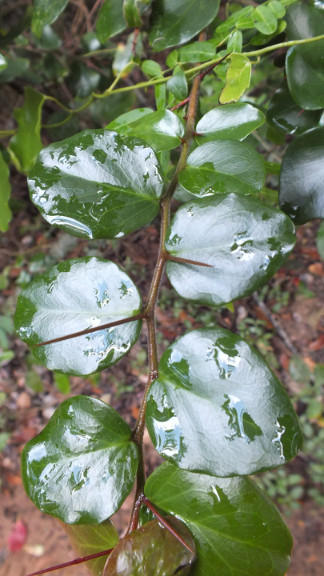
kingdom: Plantae
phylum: Tracheophyta
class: Magnoliopsida
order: Malpighiales
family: Salicaceae
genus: Dovyalis
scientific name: Dovyalis rhamnoides
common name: Sourberry
